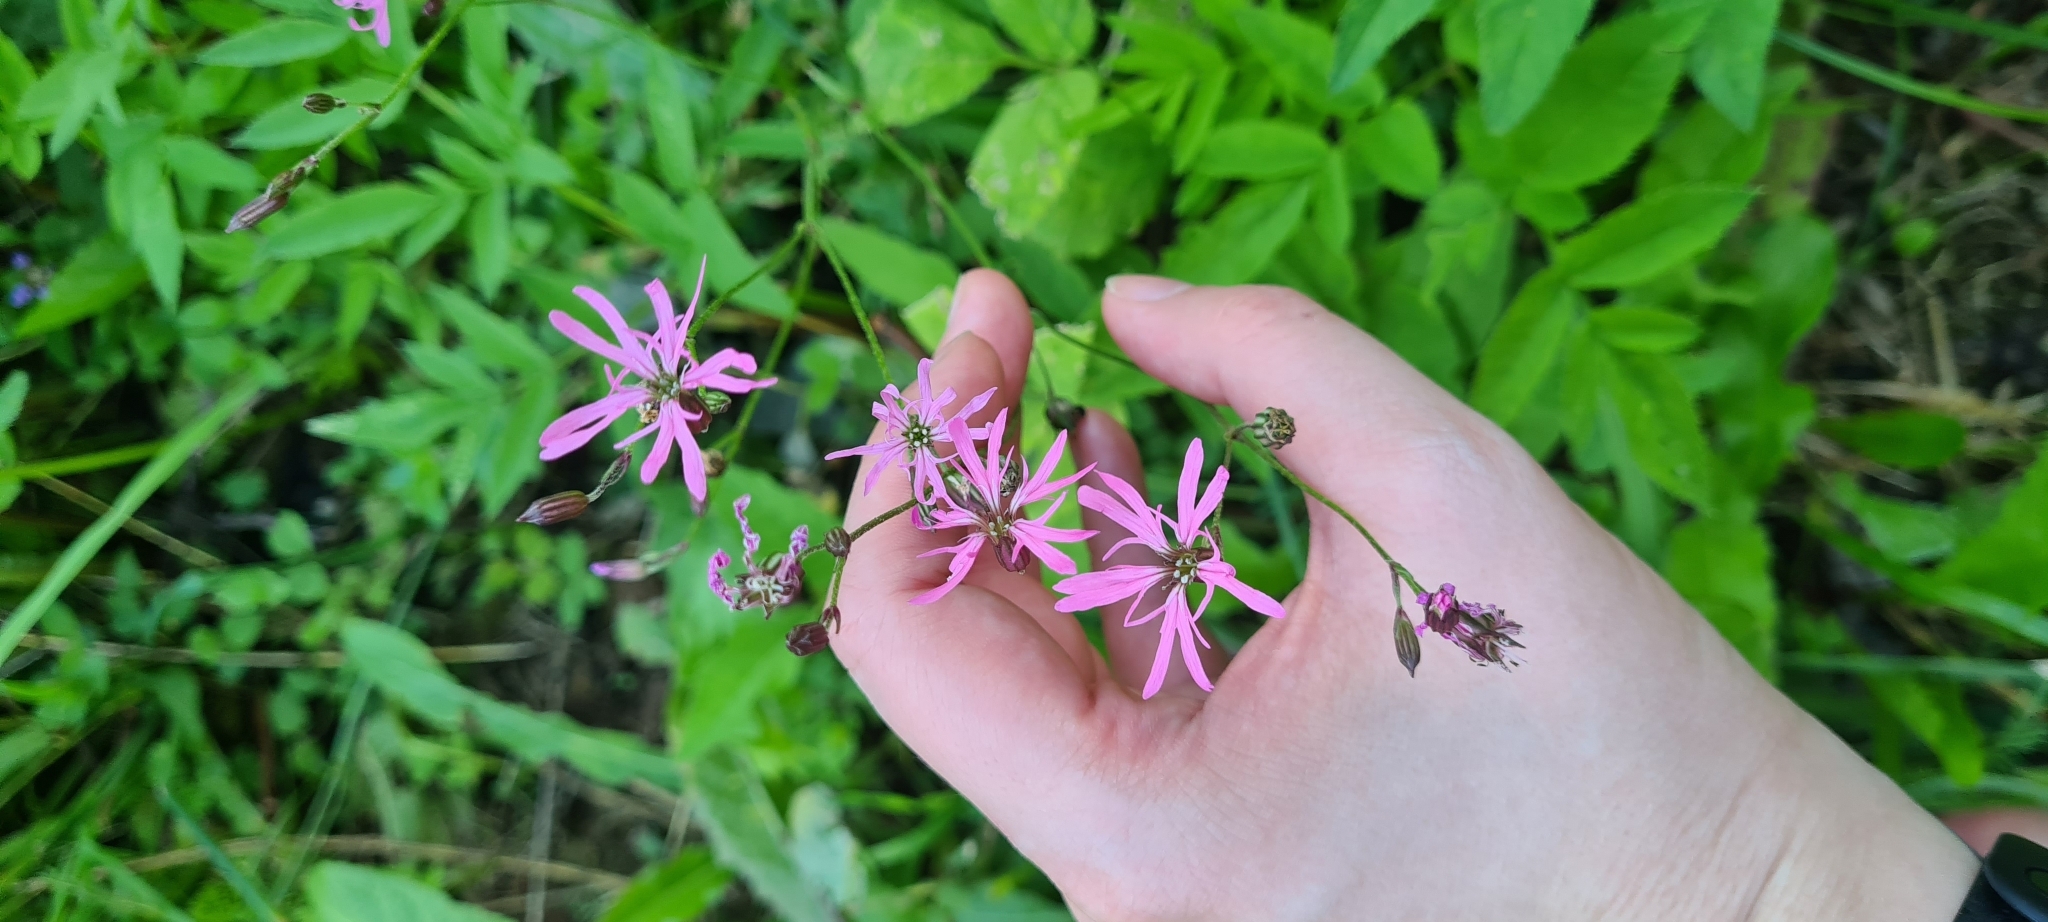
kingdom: Plantae
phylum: Tracheophyta
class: Magnoliopsida
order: Caryophyllales
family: Caryophyllaceae
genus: Silene
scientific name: Silene flos-cuculi
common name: Ragged-robin
